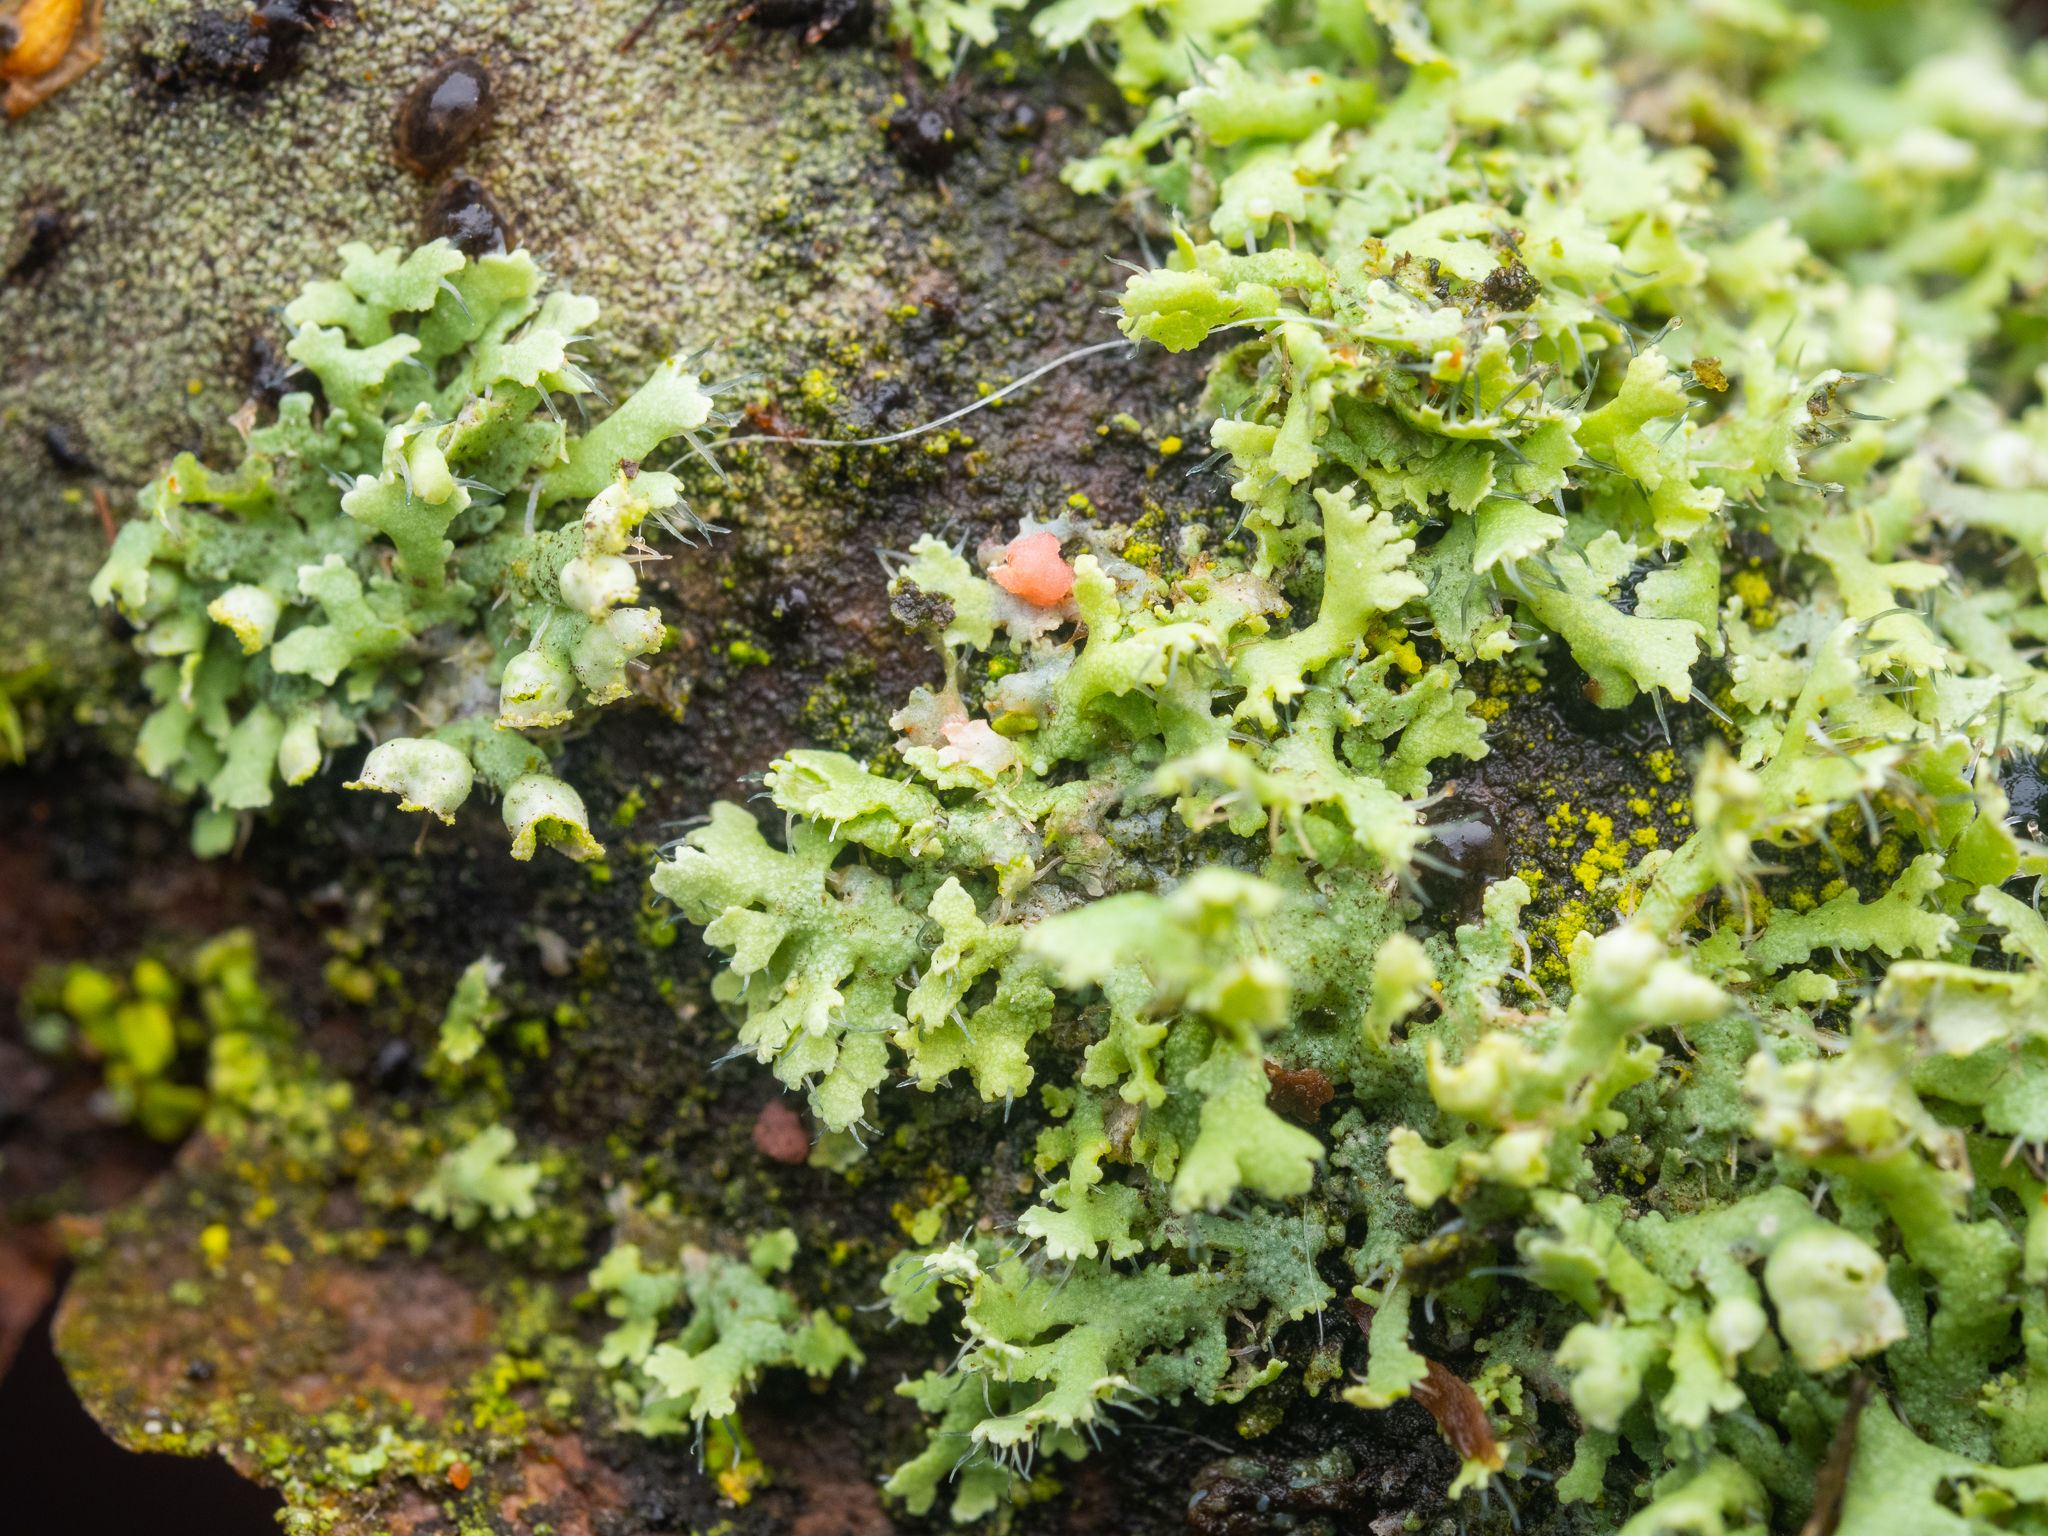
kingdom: Fungi
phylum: Ascomycota
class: Lecanoromycetes
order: Caliciales
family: Physciaceae
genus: Physcia
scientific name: Physcia adscendens
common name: Hooded rosette lichen
